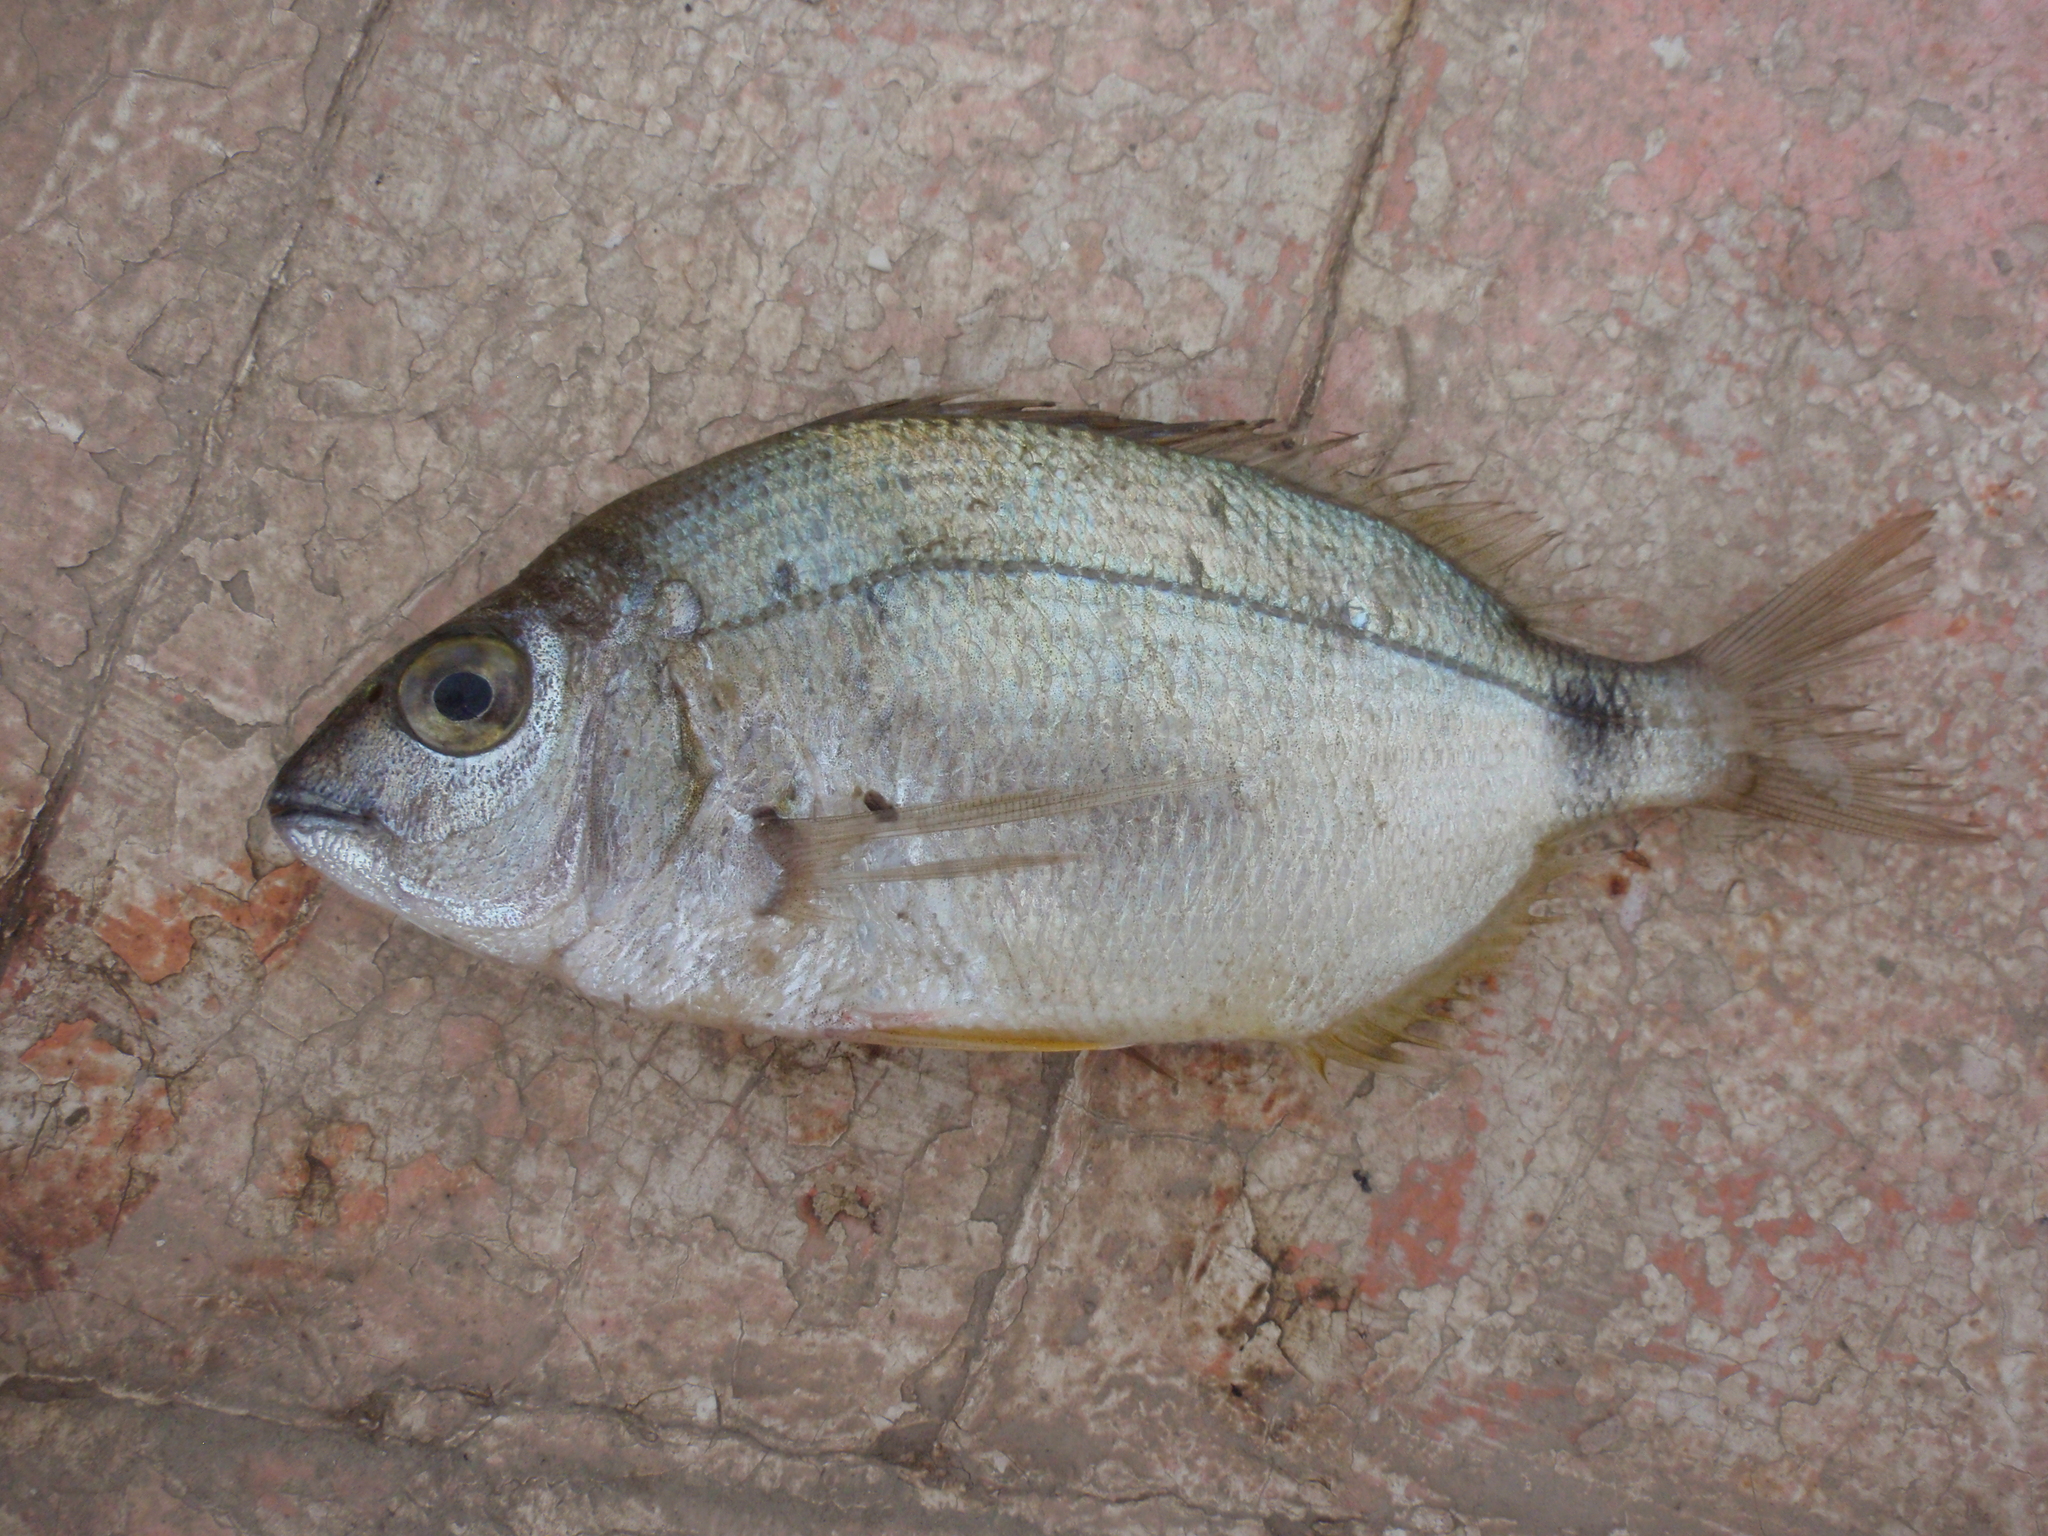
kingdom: Animalia
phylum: Chordata
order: Perciformes
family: Sparidae
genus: Diplodus
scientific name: Diplodus annularis
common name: Annular seabream
